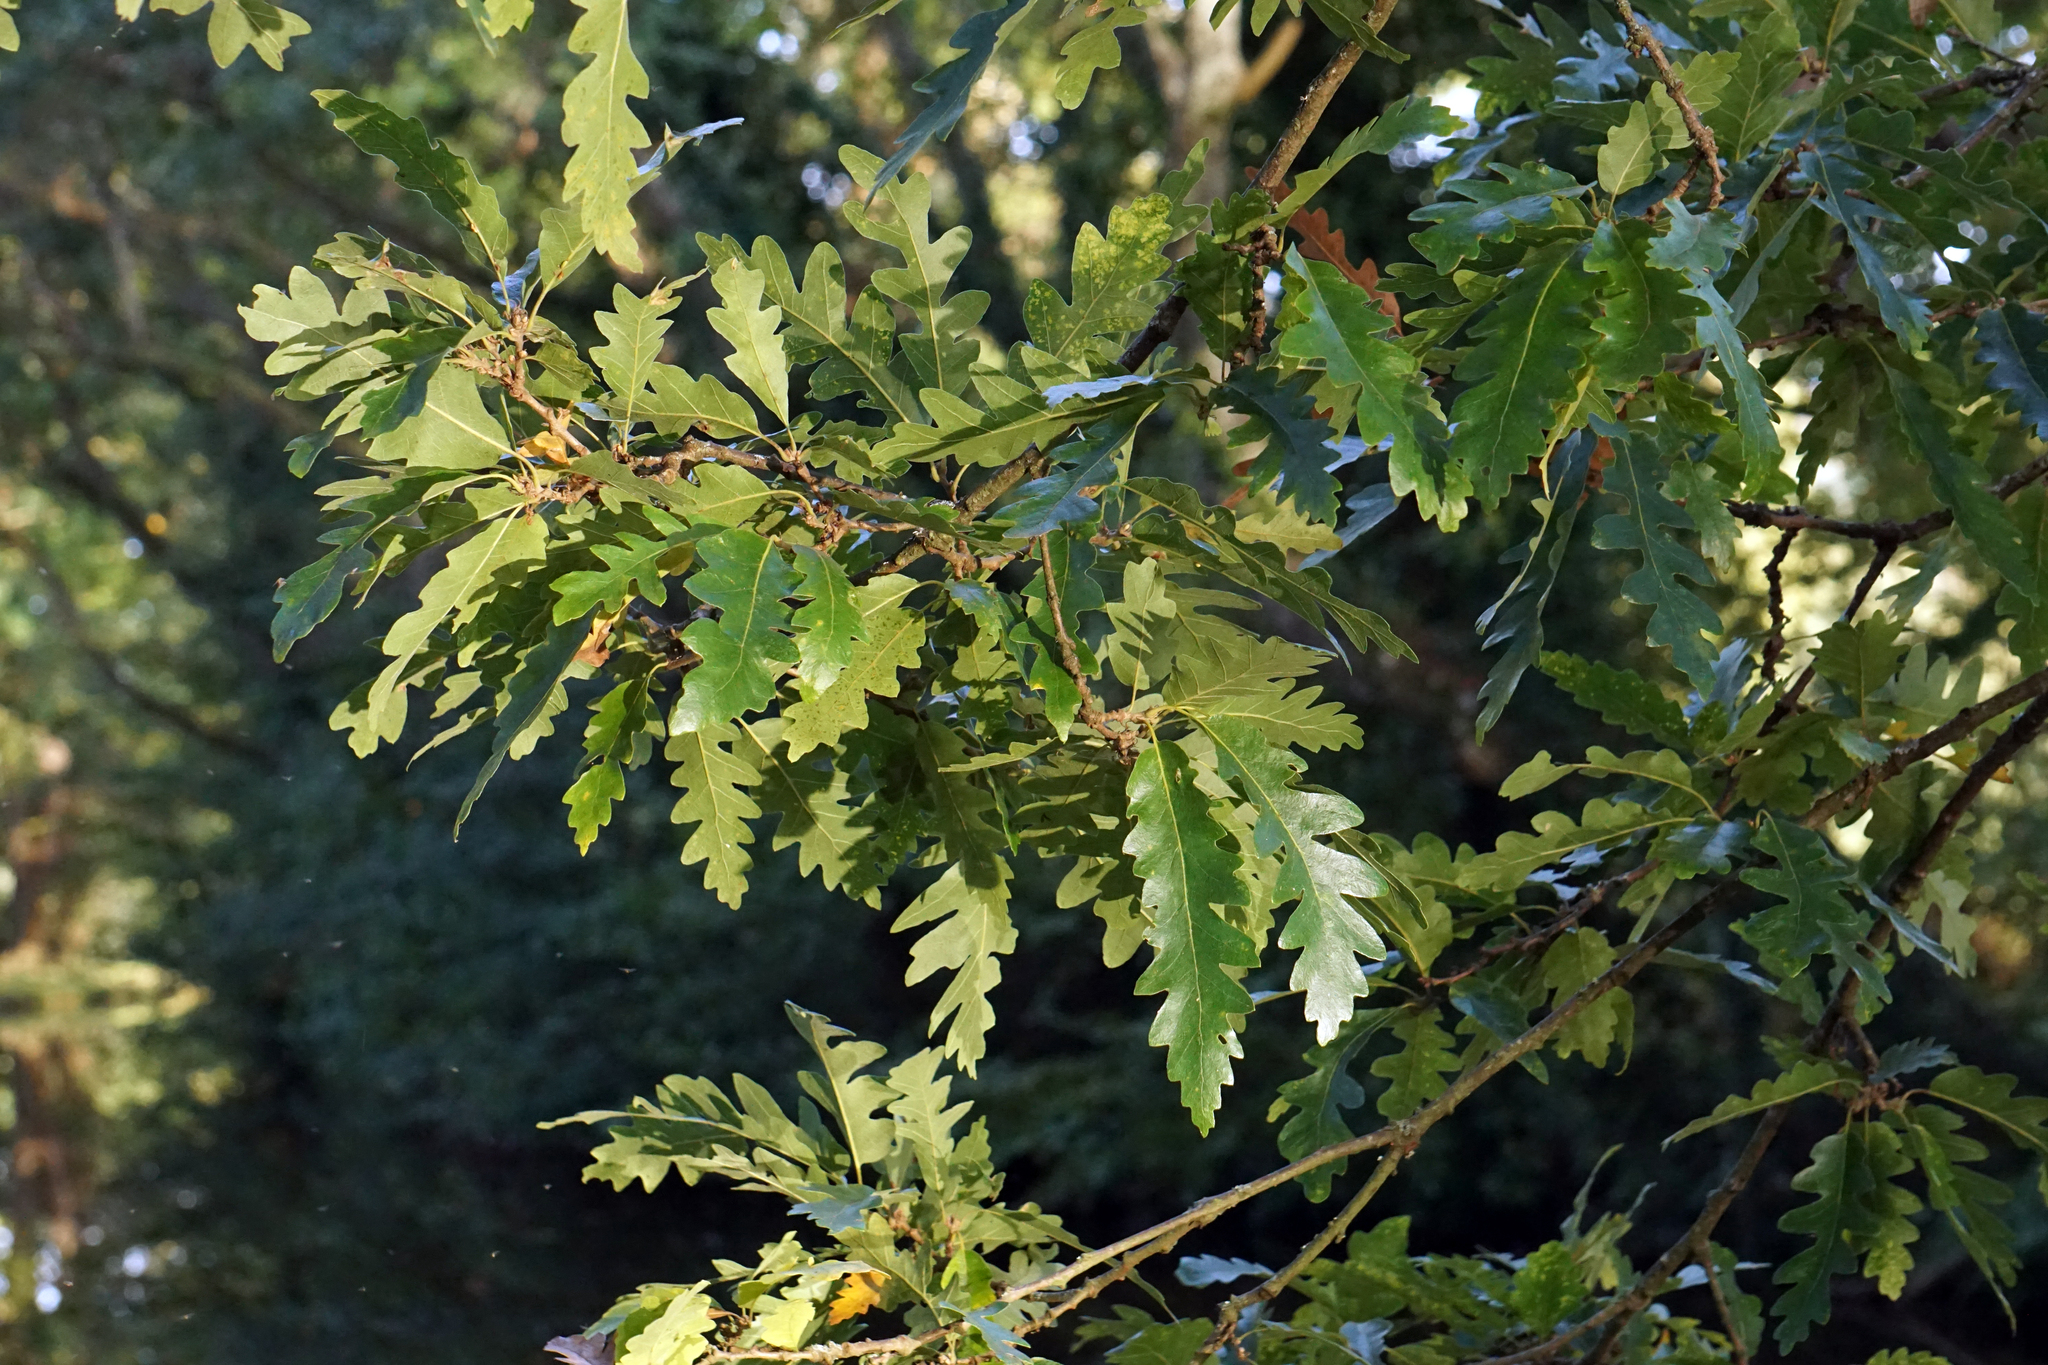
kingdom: Plantae
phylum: Tracheophyta
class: Magnoliopsida
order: Fagales
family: Fagaceae
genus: Quercus
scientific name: Quercus cerris
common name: Turkey oak
